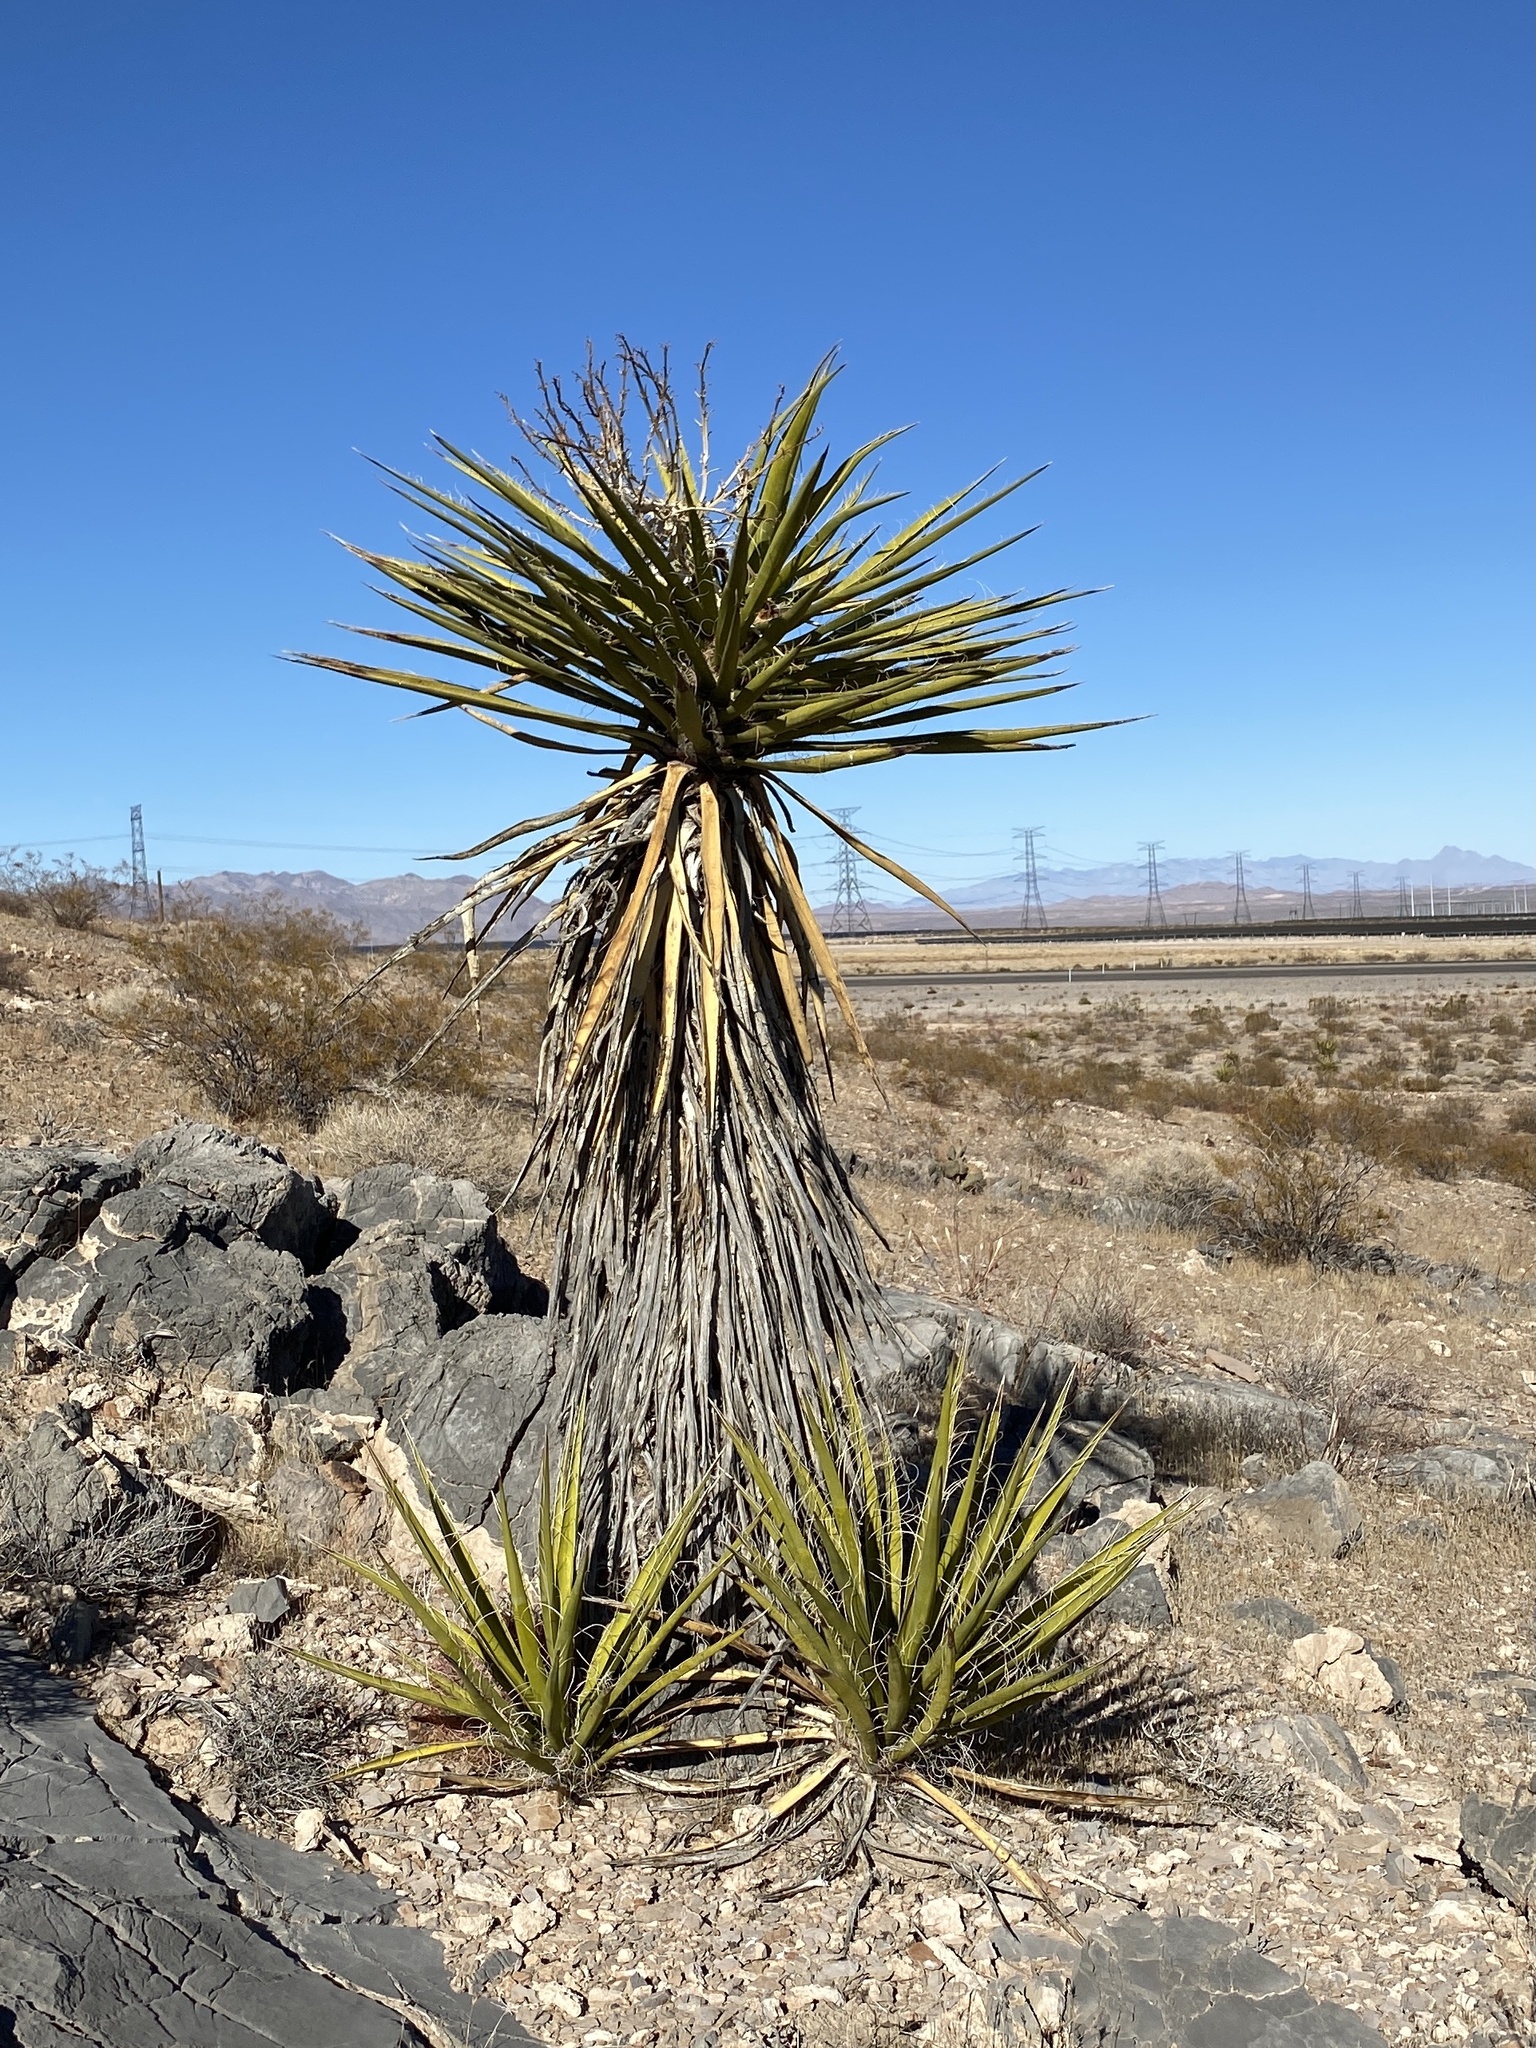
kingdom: Plantae
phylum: Tracheophyta
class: Liliopsida
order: Asparagales
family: Asparagaceae
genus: Yucca
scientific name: Yucca schidigera
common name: Mojave yucca
